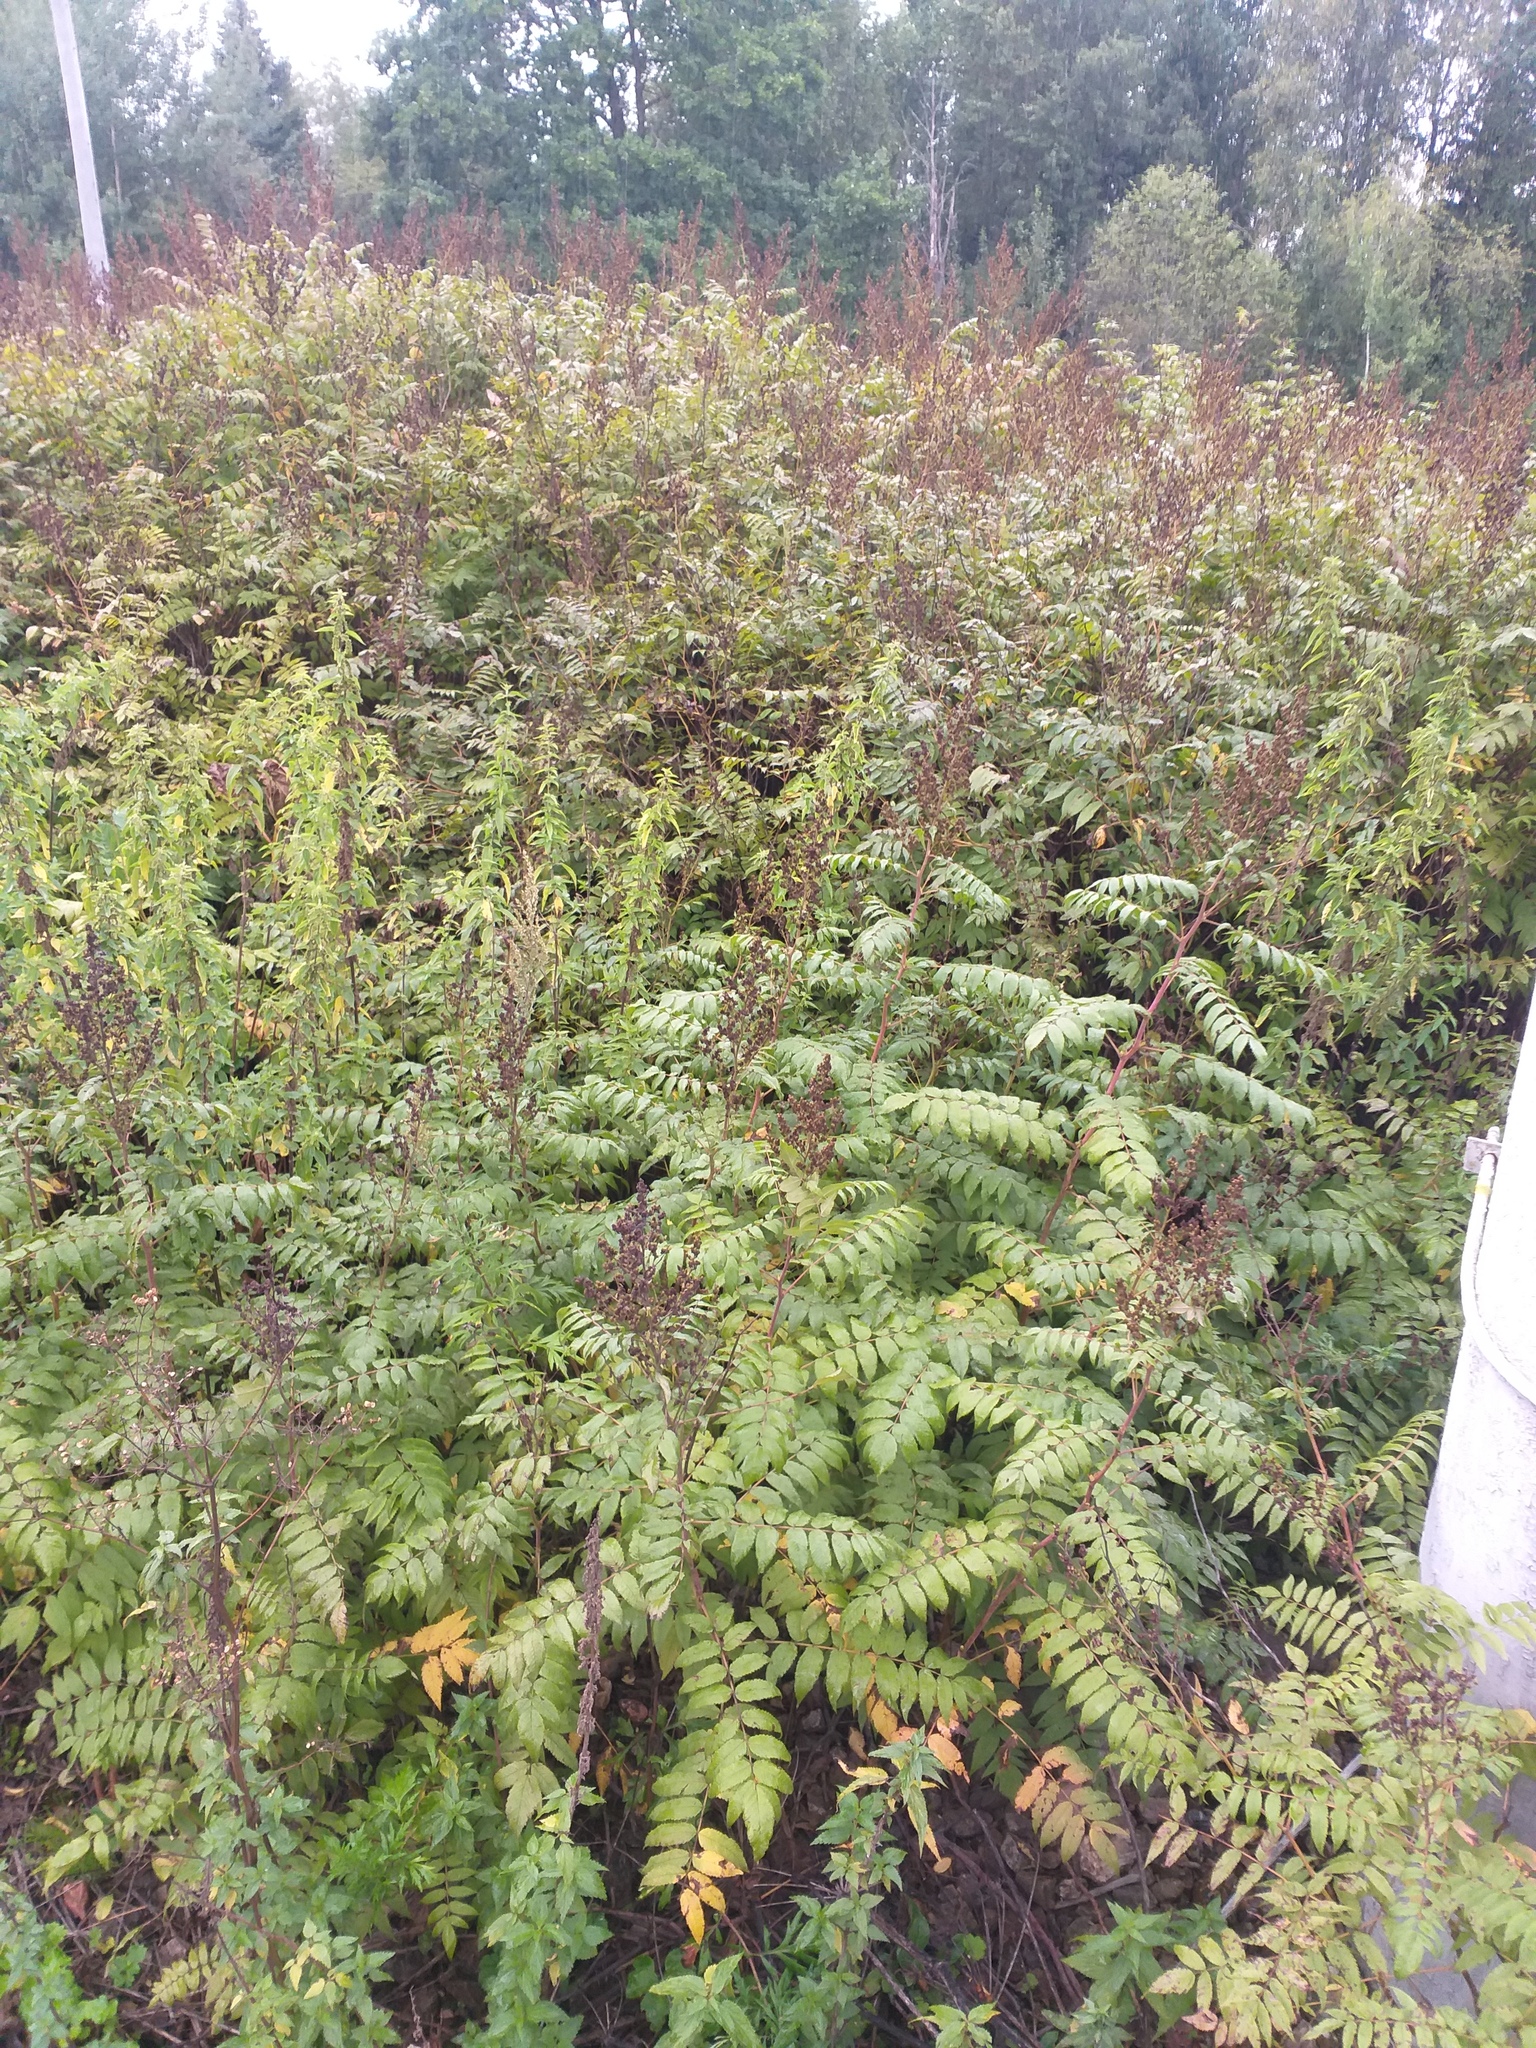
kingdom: Plantae
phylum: Tracheophyta
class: Magnoliopsida
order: Rosales
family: Rosaceae
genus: Sorbaria
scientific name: Sorbaria sorbifolia
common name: False spiraea
